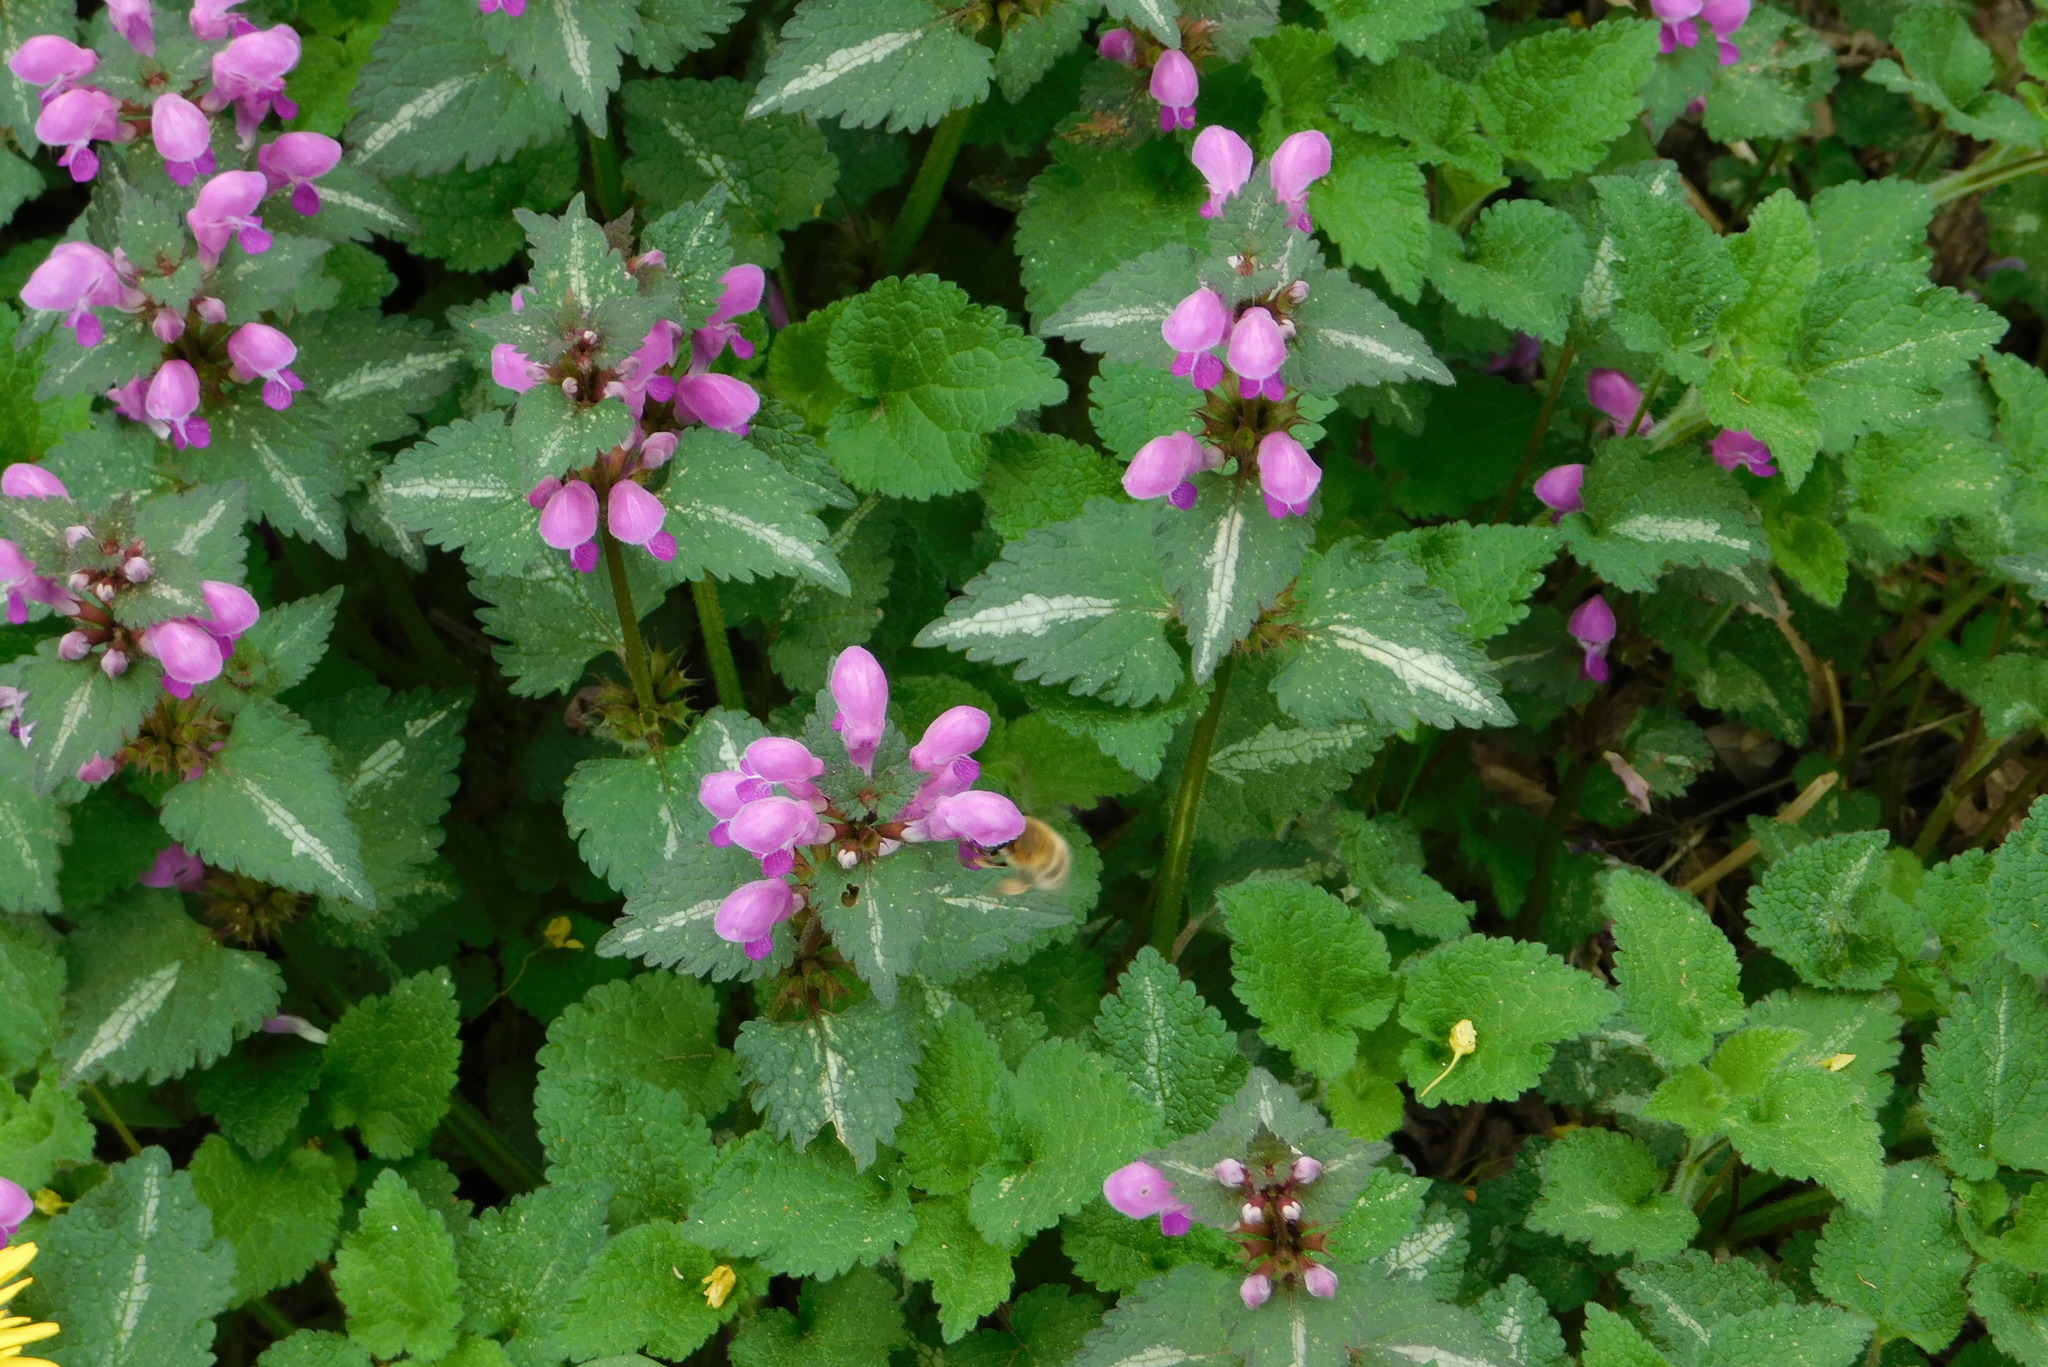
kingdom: Plantae
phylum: Tracheophyta
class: Magnoliopsida
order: Lamiales
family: Lamiaceae
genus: Lamium
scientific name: Lamium maculatum
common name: Spotted dead-nettle
